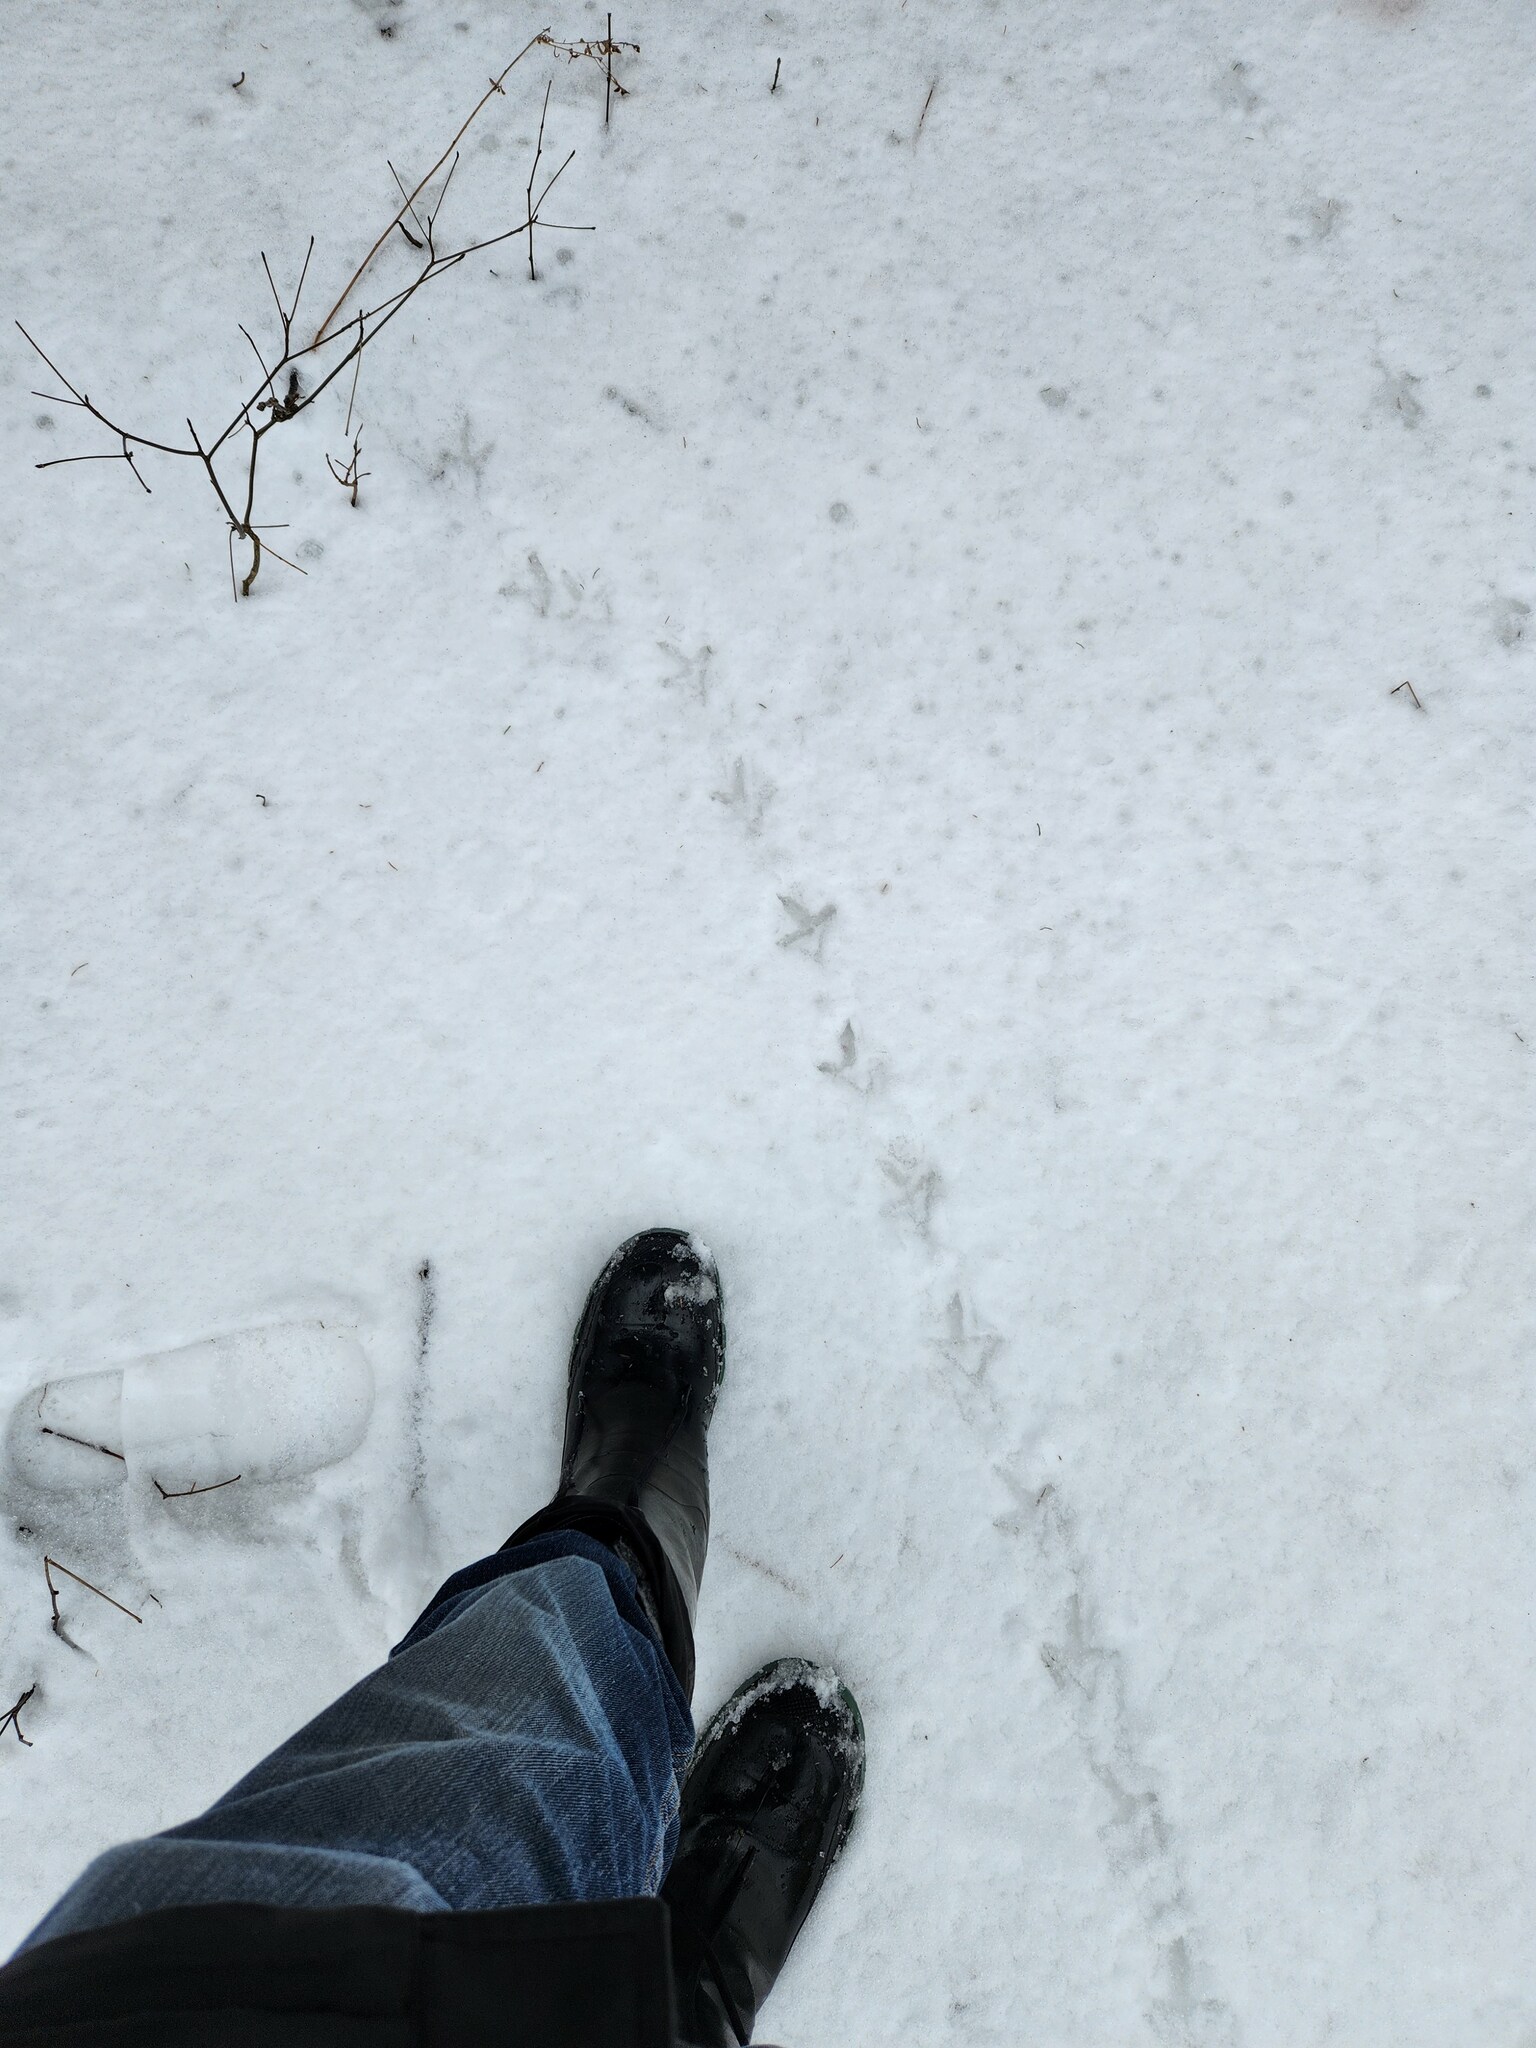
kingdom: Animalia
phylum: Chordata
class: Aves
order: Galliformes
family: Phasianidae
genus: Bonasa
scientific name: Bonasa umbellus
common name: Ruffed grouse
